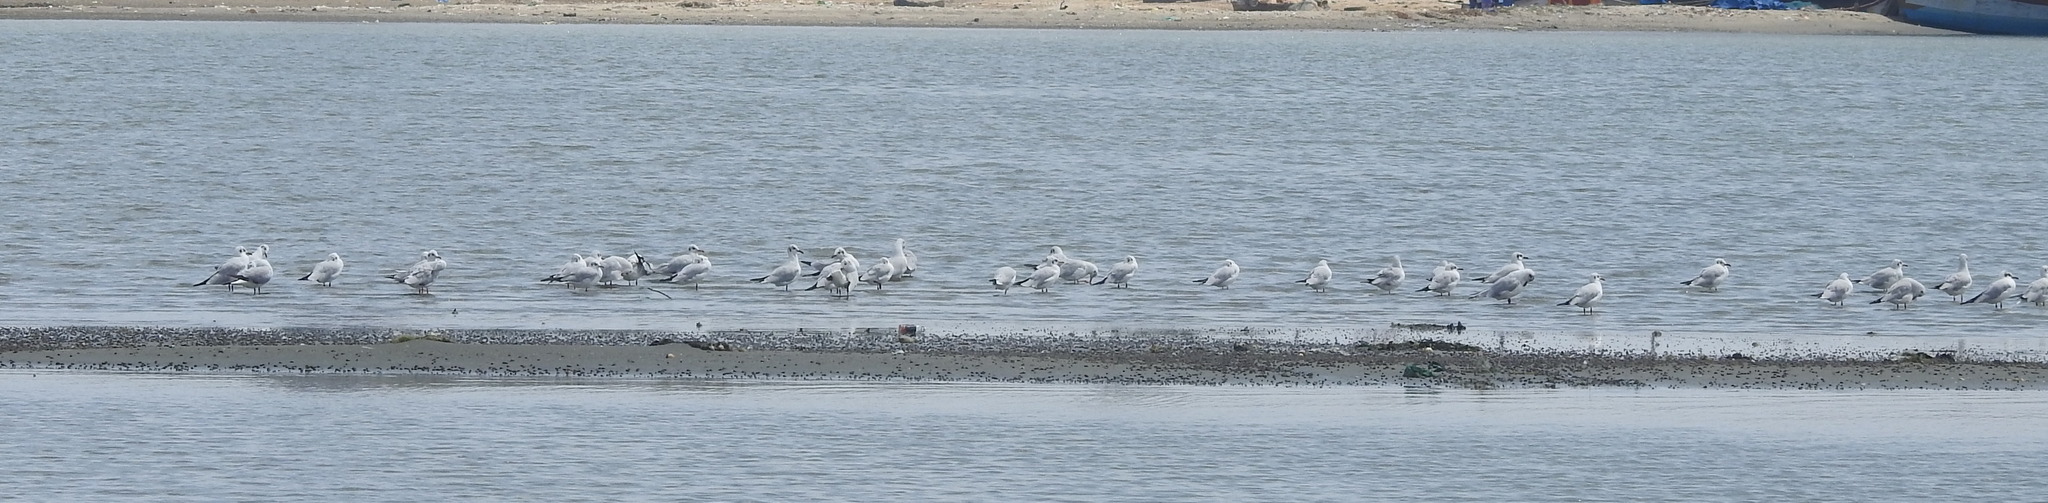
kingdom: Animalia
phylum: Chordata
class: Aves
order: Charadriiformes
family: Laridae
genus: Chroicocephalus
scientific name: Chroicocephalus ridibundus
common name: Black-headed gull
